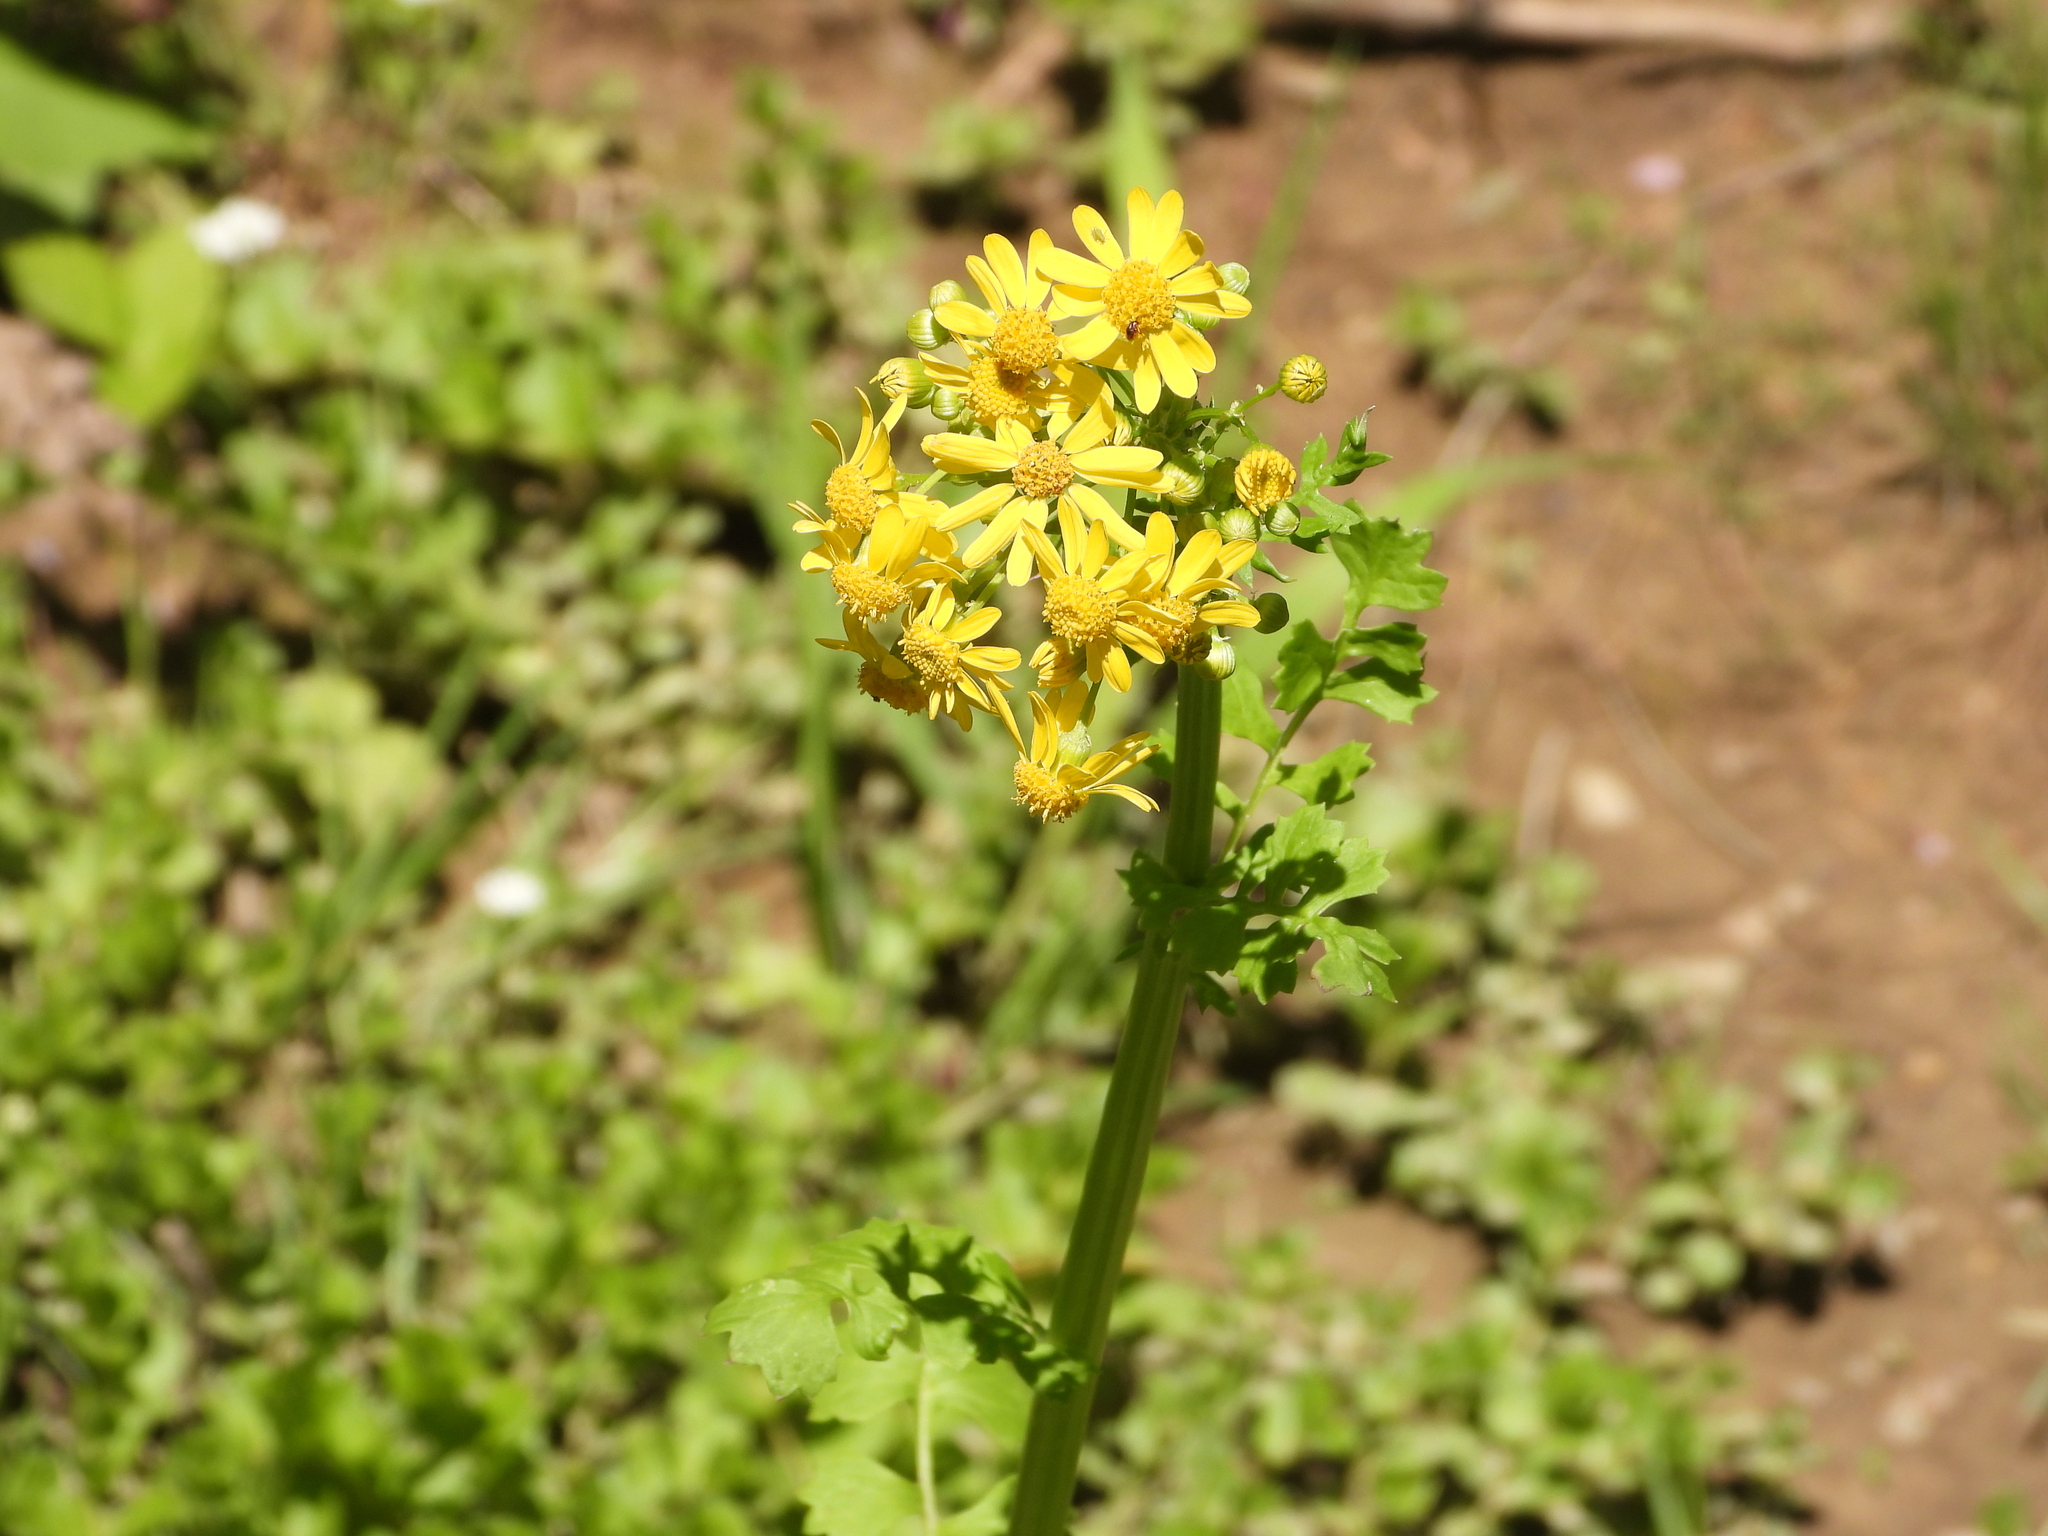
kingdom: Plantae
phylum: Tracheophyta
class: Magnoliopsida
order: Asterales
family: Asteraceae
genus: Packera
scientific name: Packera glabella
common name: Butterweed
